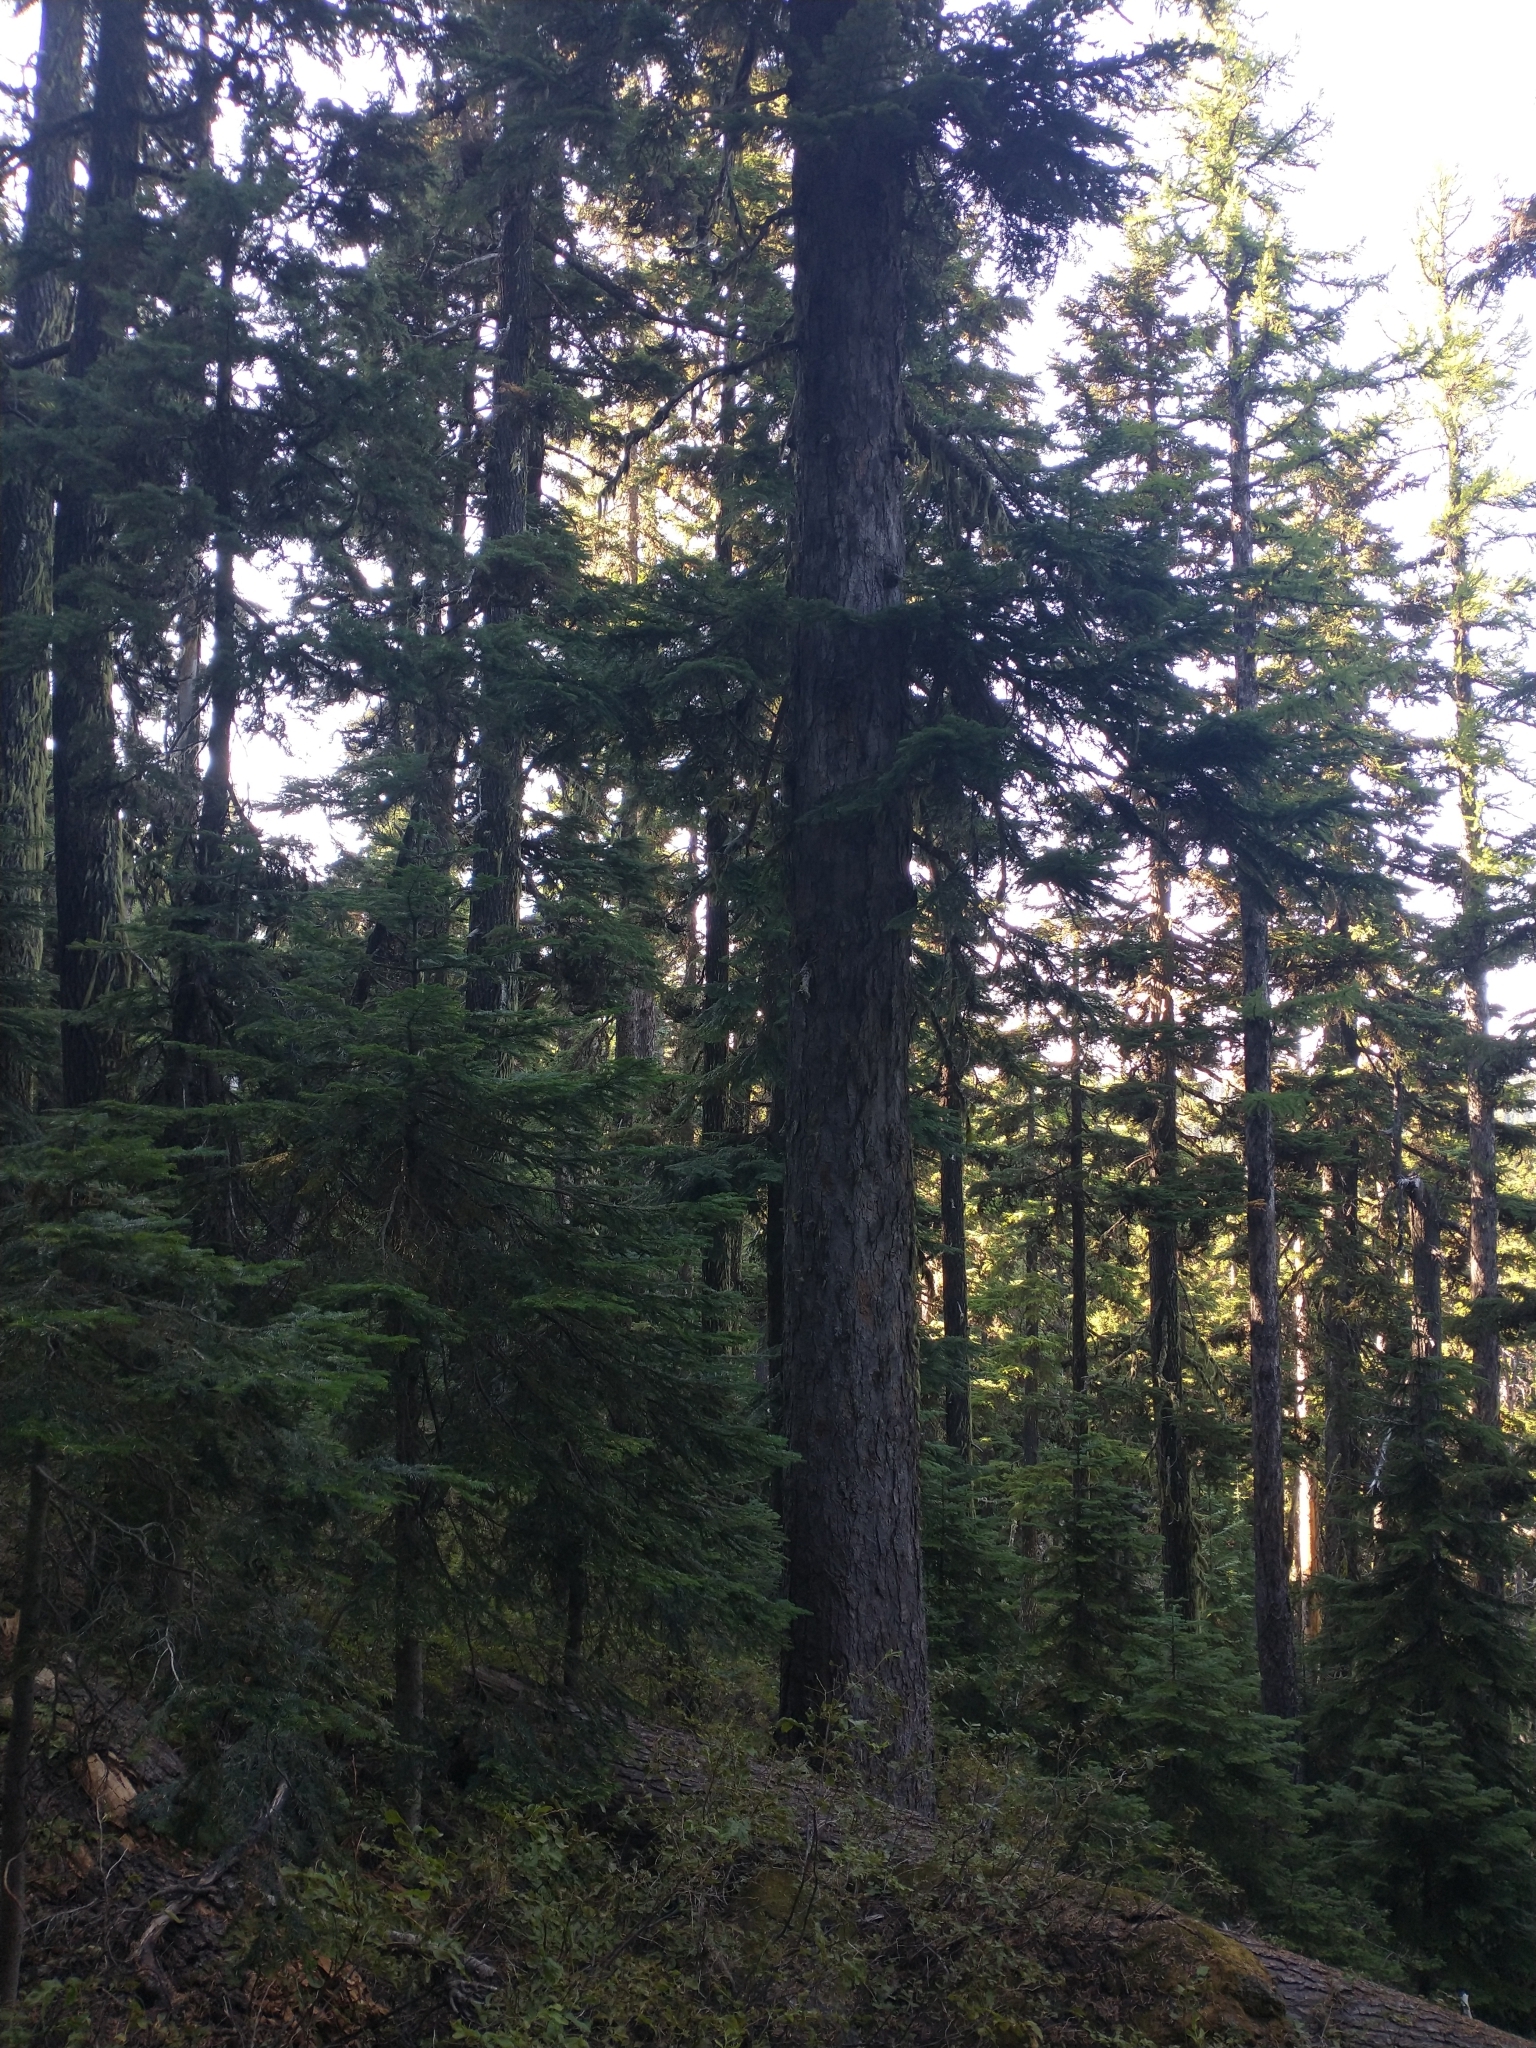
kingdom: Plantae
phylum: Tracheophyta
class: Pinopsida
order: Pinales
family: Pinaceae
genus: Abies
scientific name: Abies amabilis
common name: Pacific silver fir
